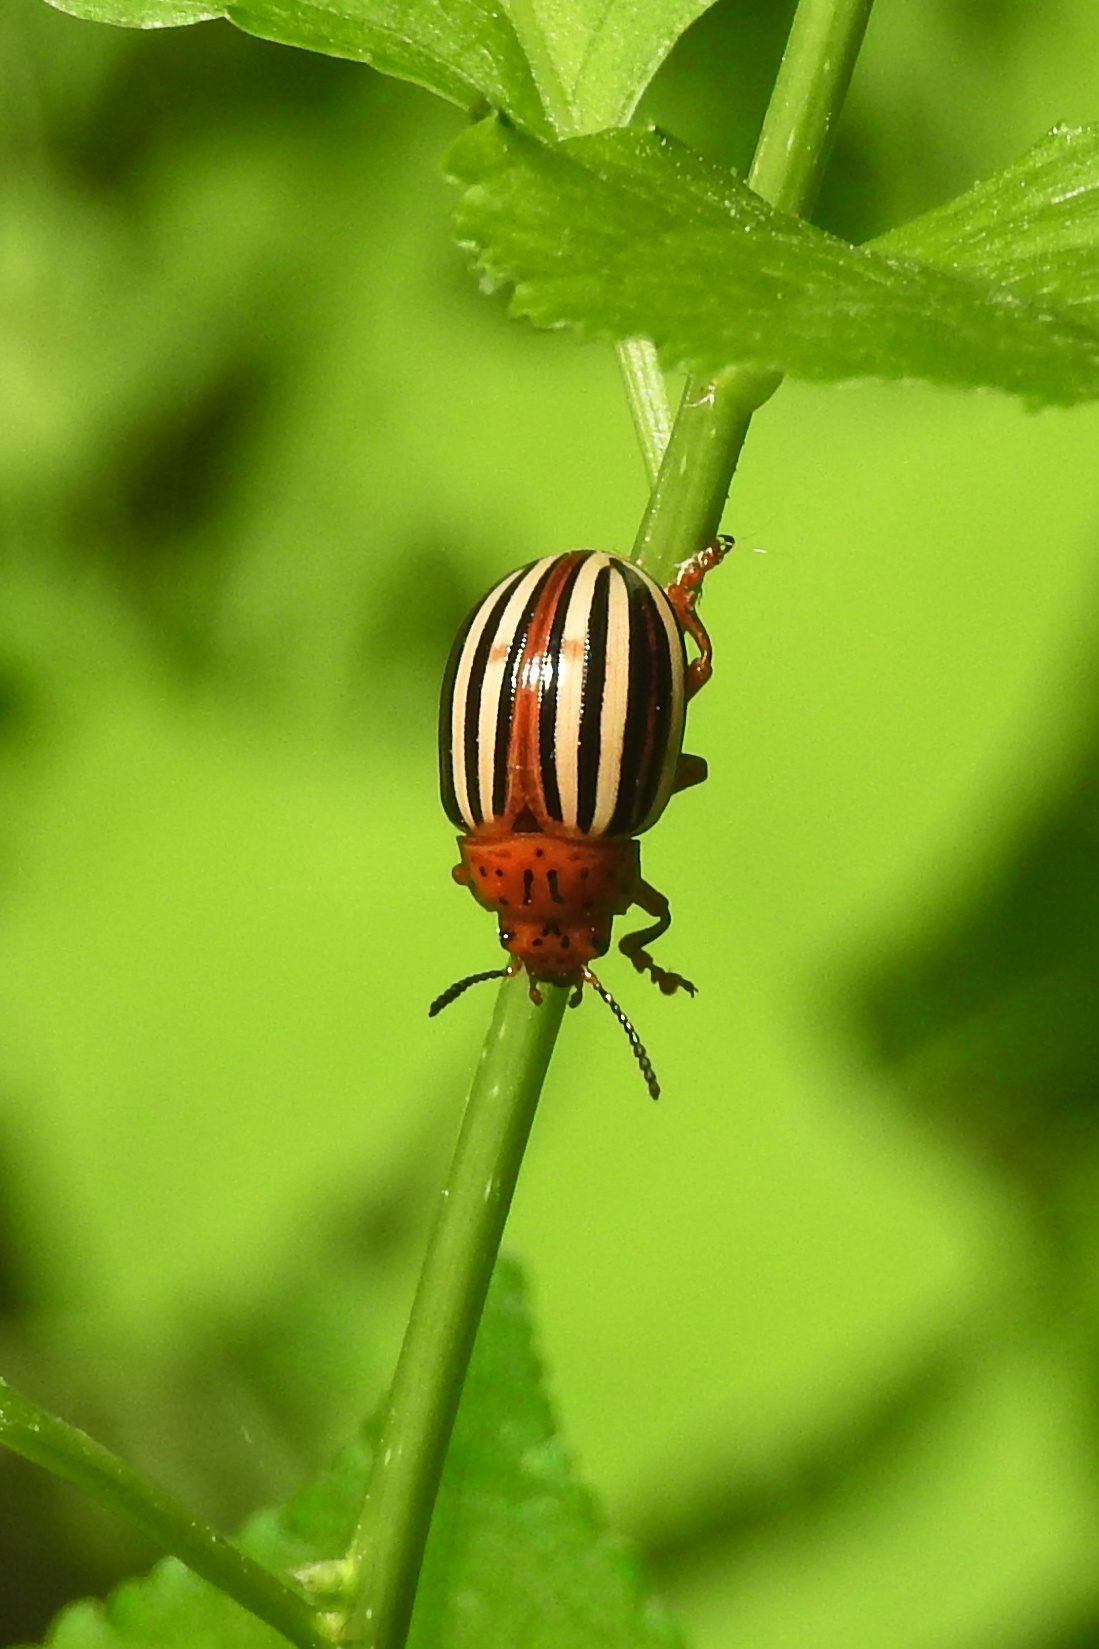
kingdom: Animalia
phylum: Arthropoda
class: Insecta
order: Coleoptera
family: Chrysomelidae
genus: Leptinotarsa
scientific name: Leptinotarsa juncta
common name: False potato beetle
